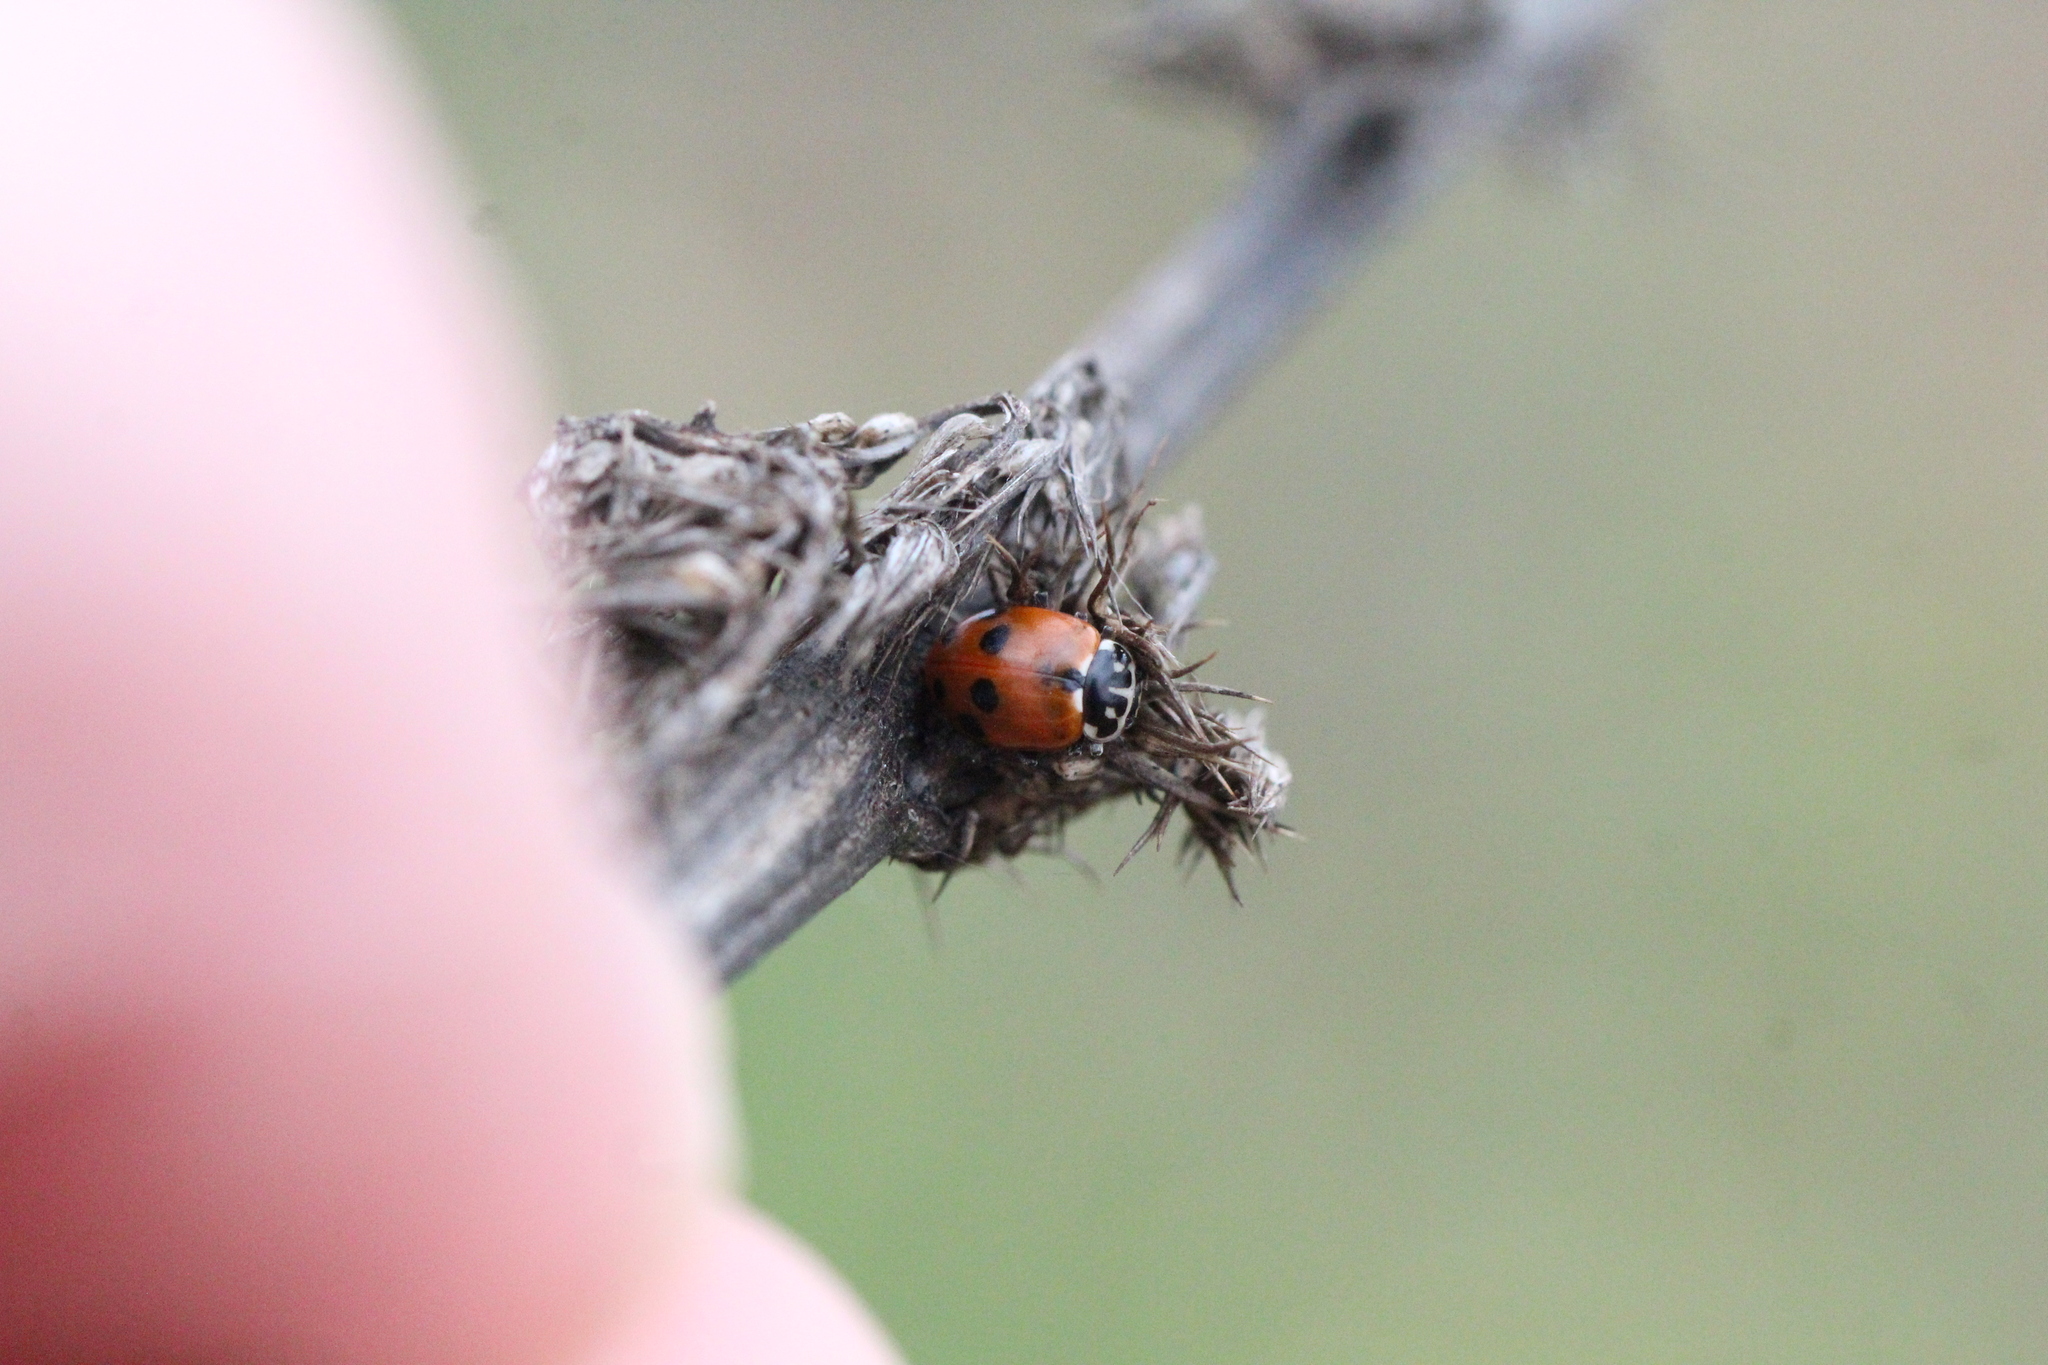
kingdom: Animalia
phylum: Arthropoda
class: Insecta
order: Coleoptera
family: Coccinellidae
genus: Hippodamia
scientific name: Hippodamia variegata
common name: Ladybird beetle
